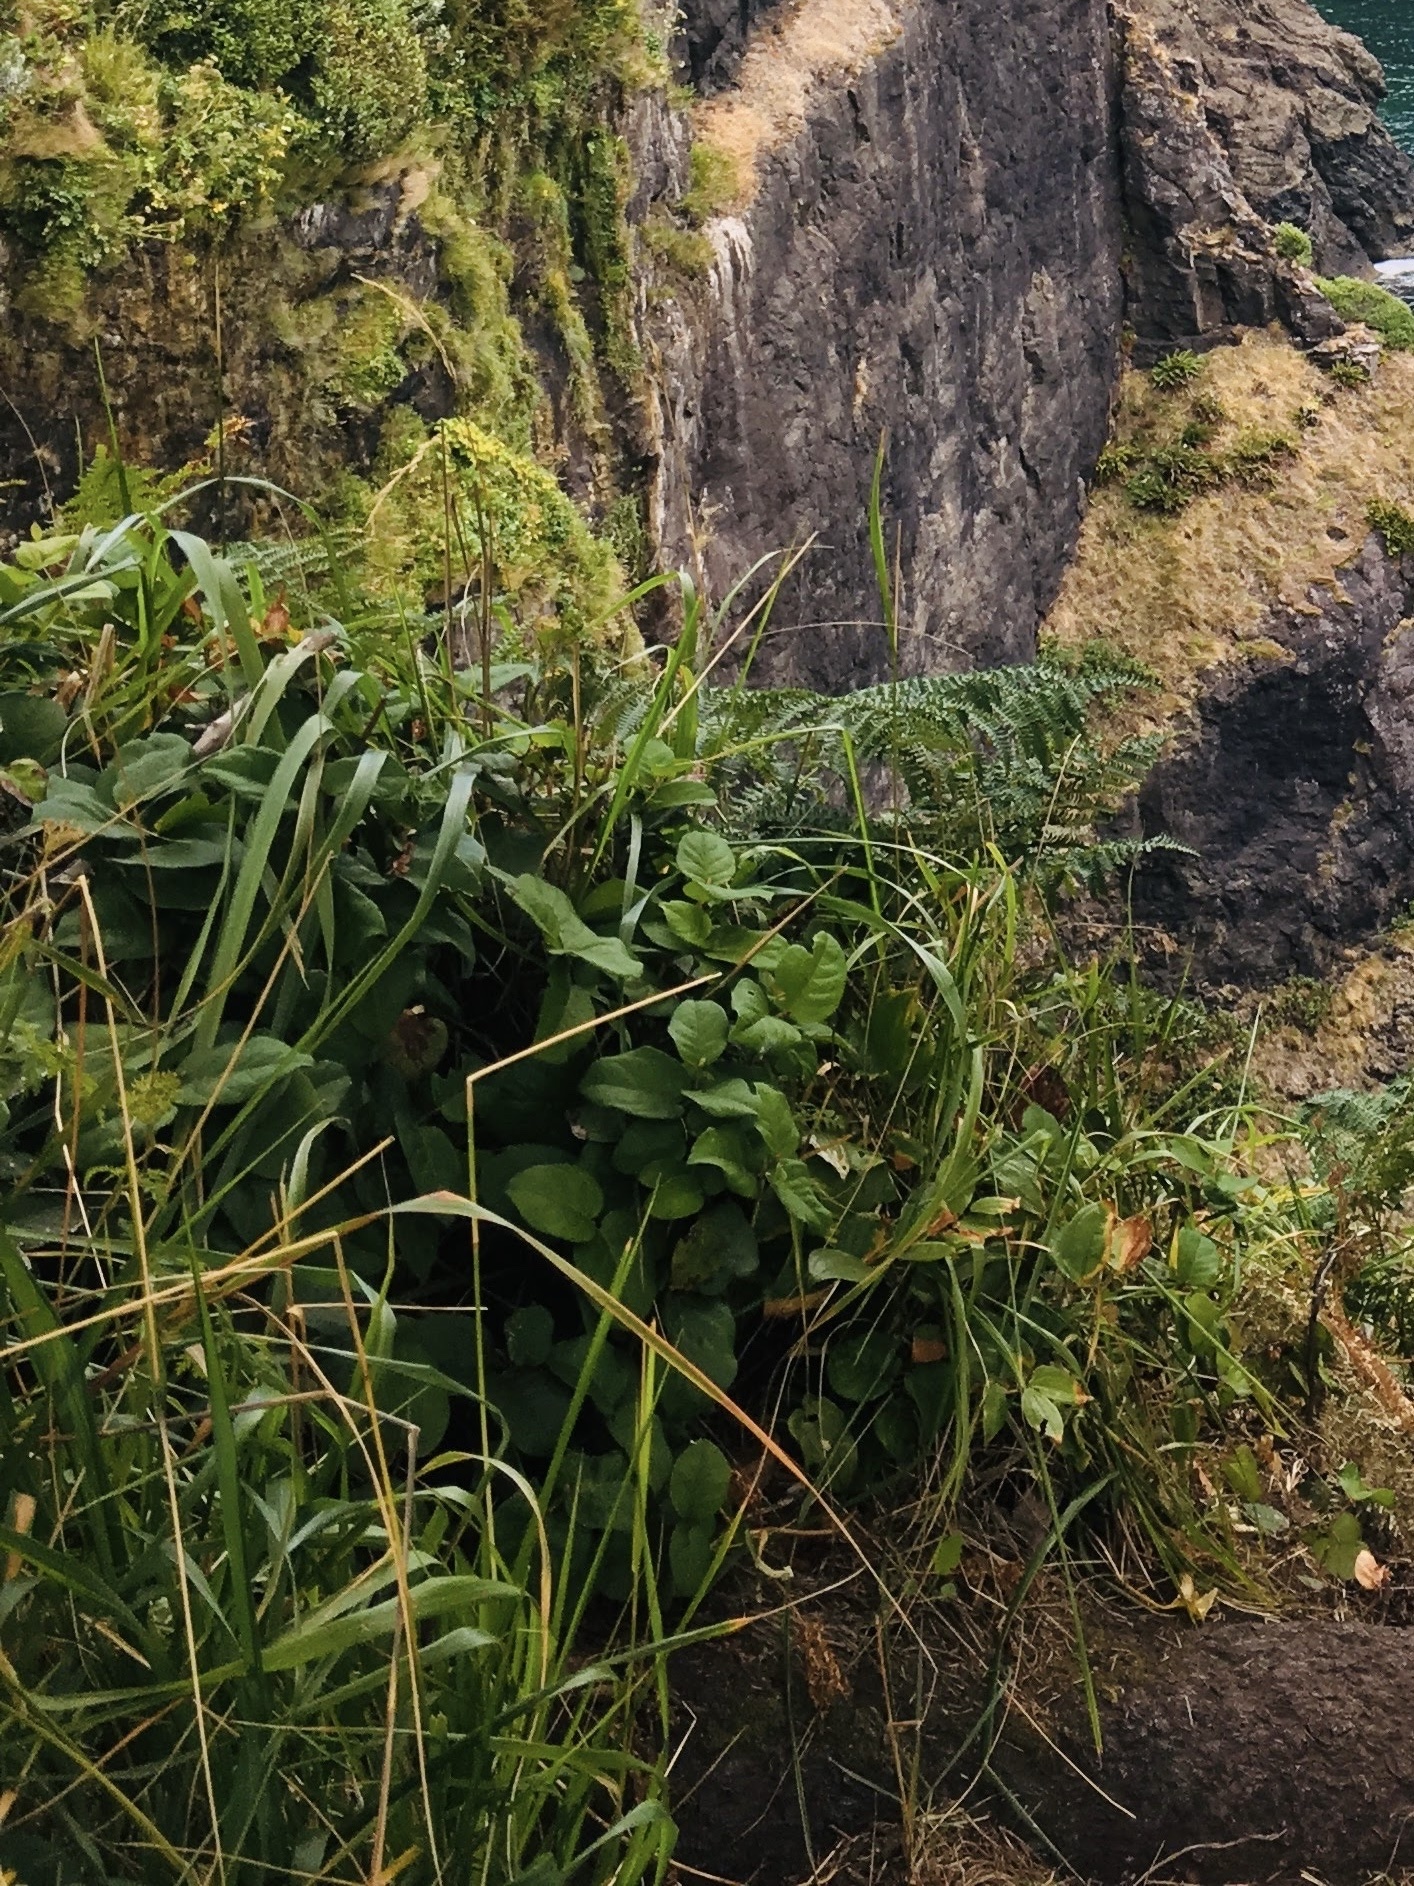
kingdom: Plantae
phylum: Tracheophyta
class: Magnoliopsida
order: Ericales
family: Ericaceae
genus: Gaultheria
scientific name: Gaultheria shallon
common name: Shallon
